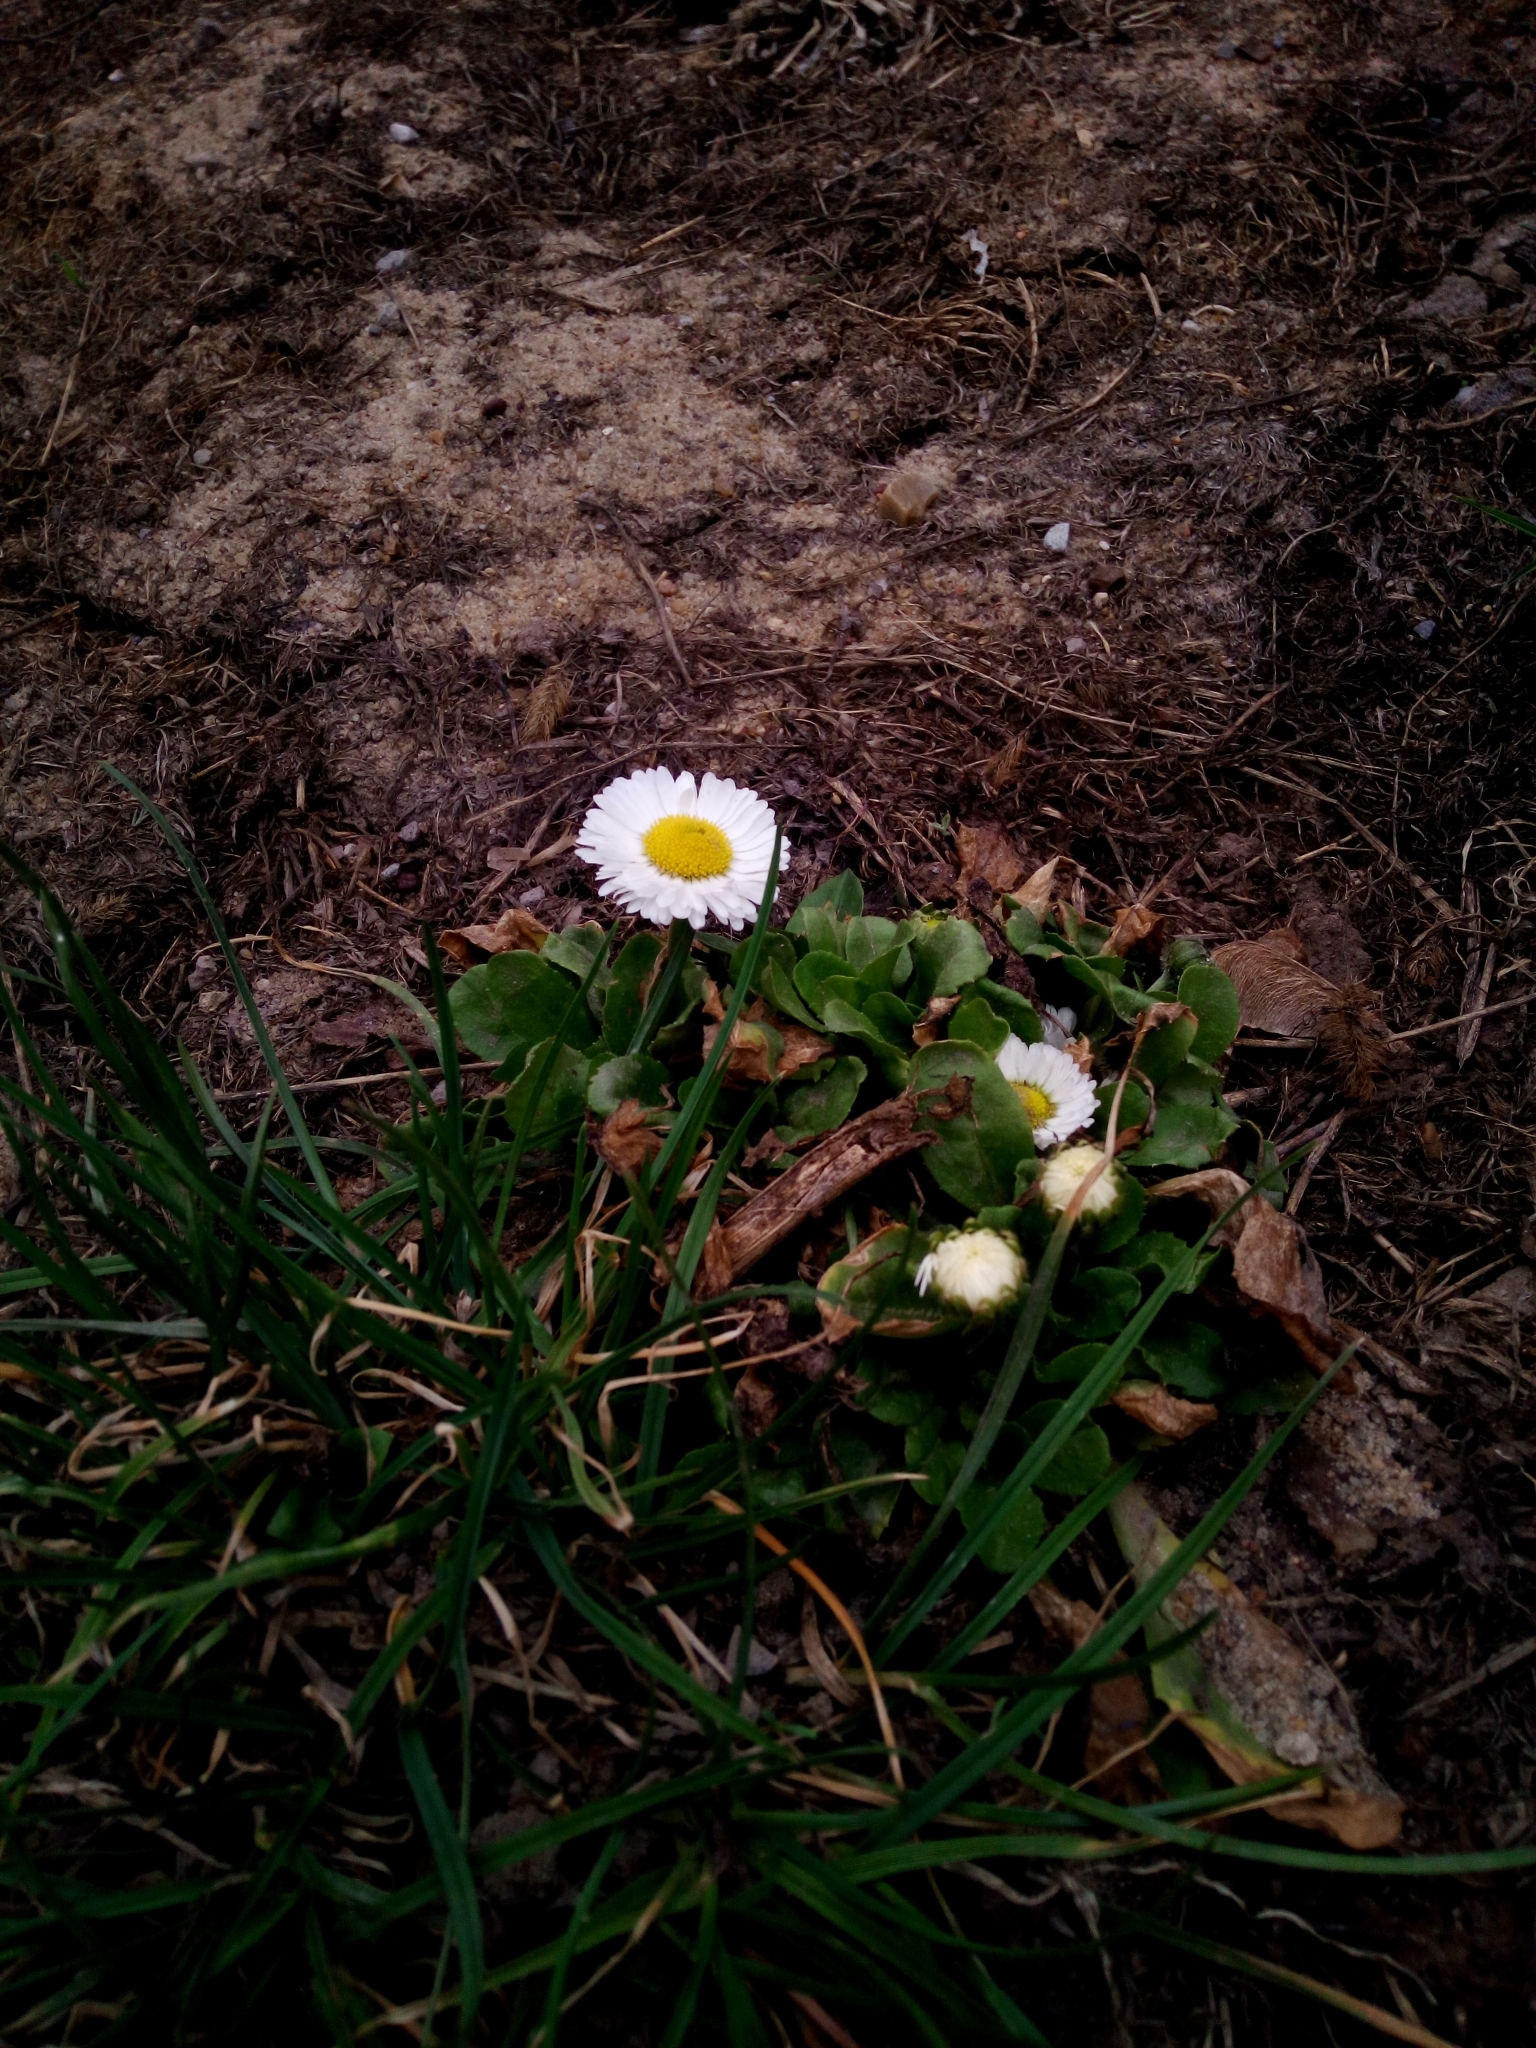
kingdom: Plantae
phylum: Tracheophyta
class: Magnoliopsida
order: Asterales
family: Asteraceae
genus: Bellis
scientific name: Bellis perennis
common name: Lawndaisy
